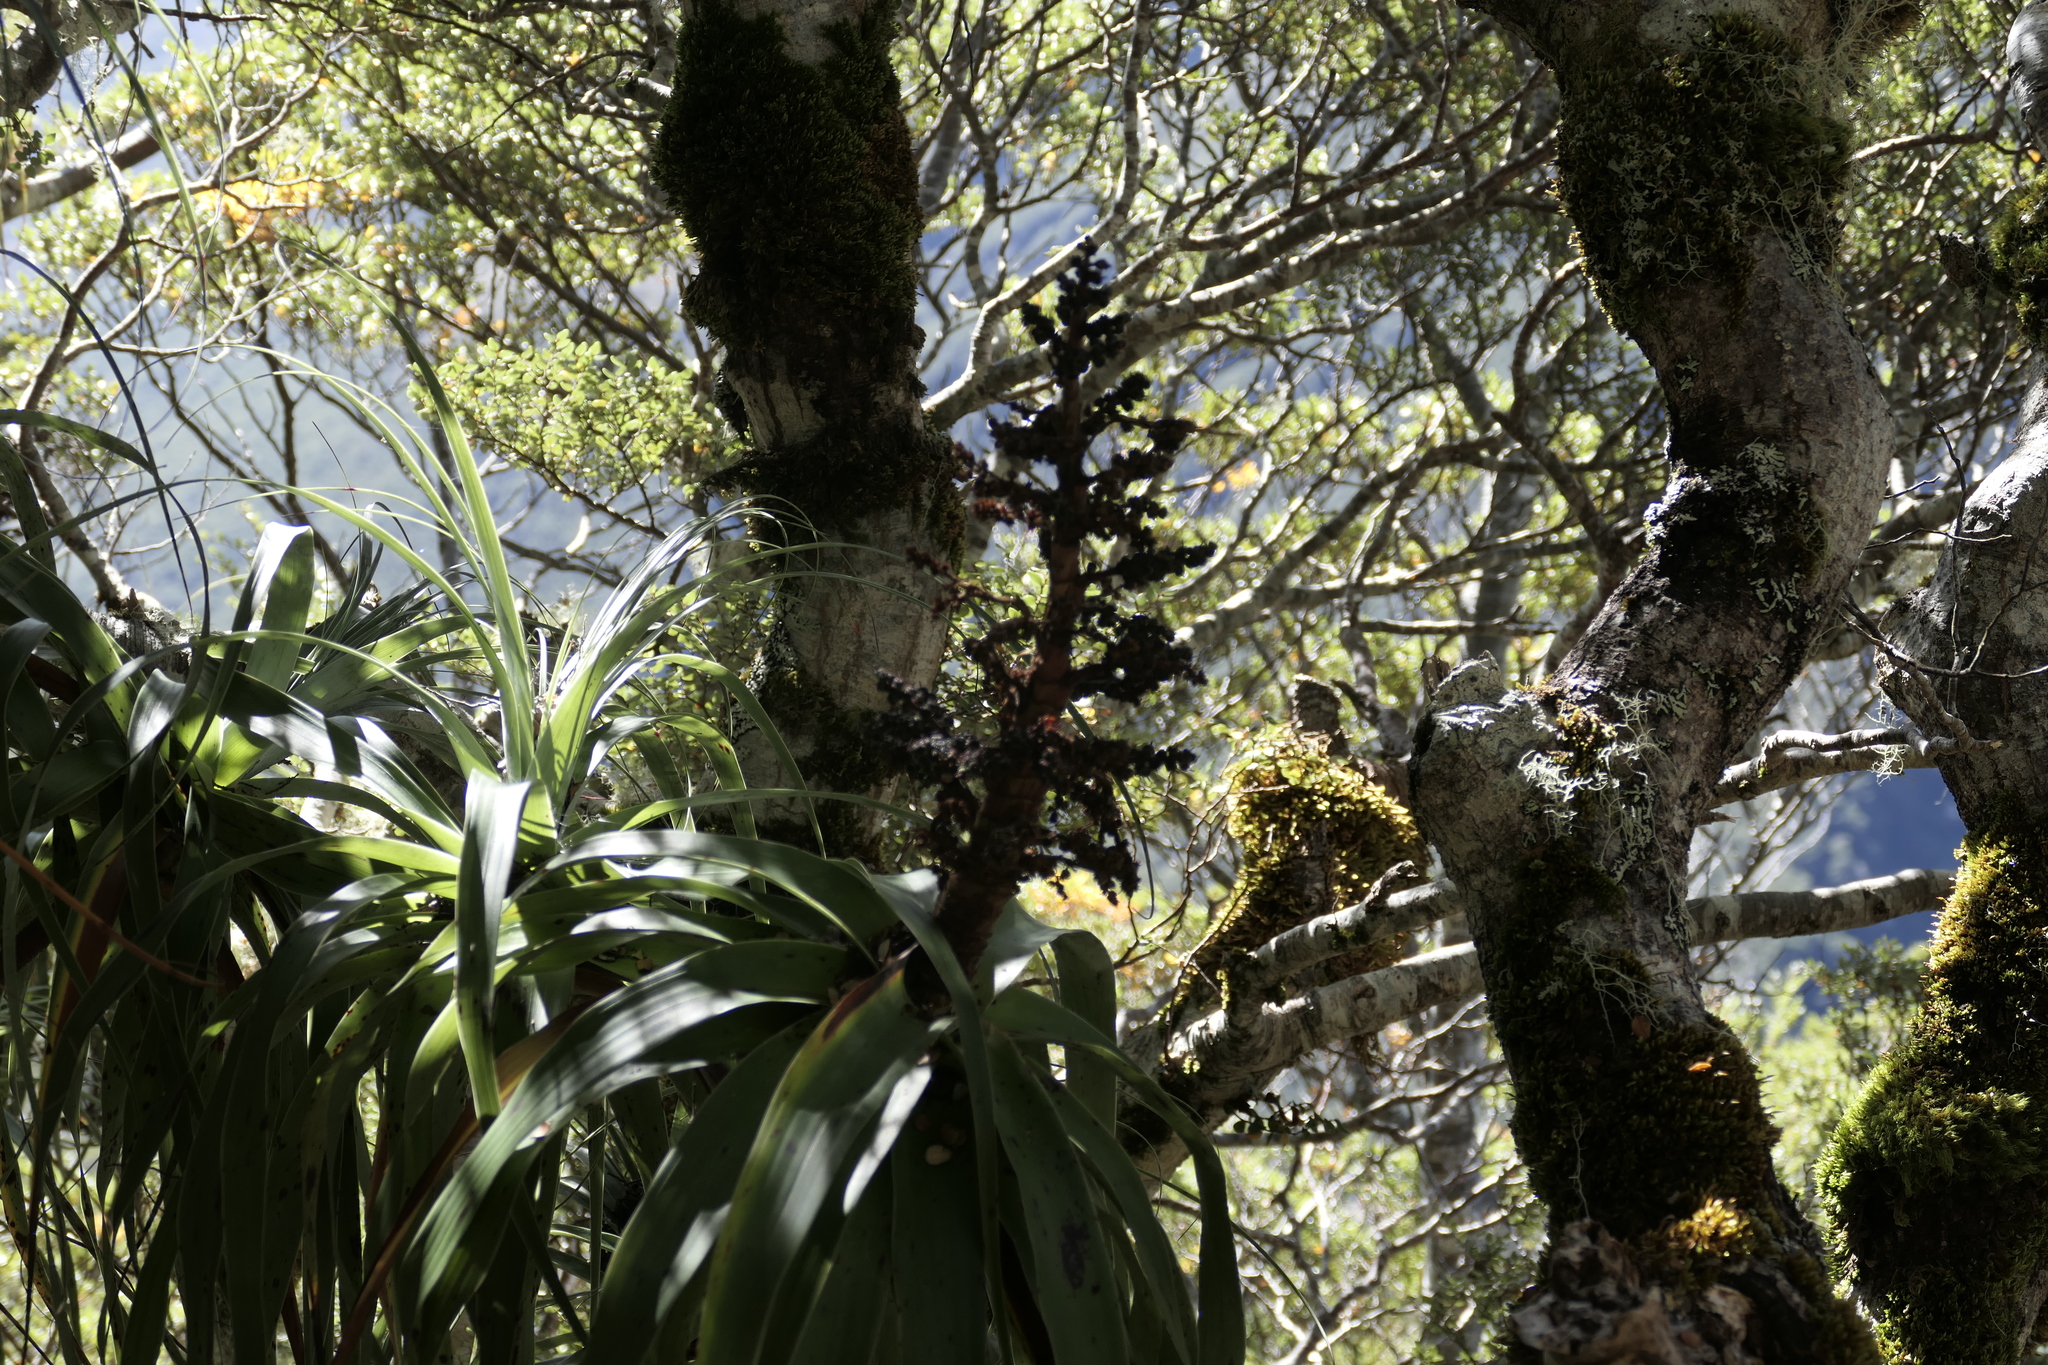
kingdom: Plantae
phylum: Tracheophyta
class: Magnoliopsida
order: Ericales
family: Ericaceae
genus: Dracophyllum
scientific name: Dracophyllum traversii
